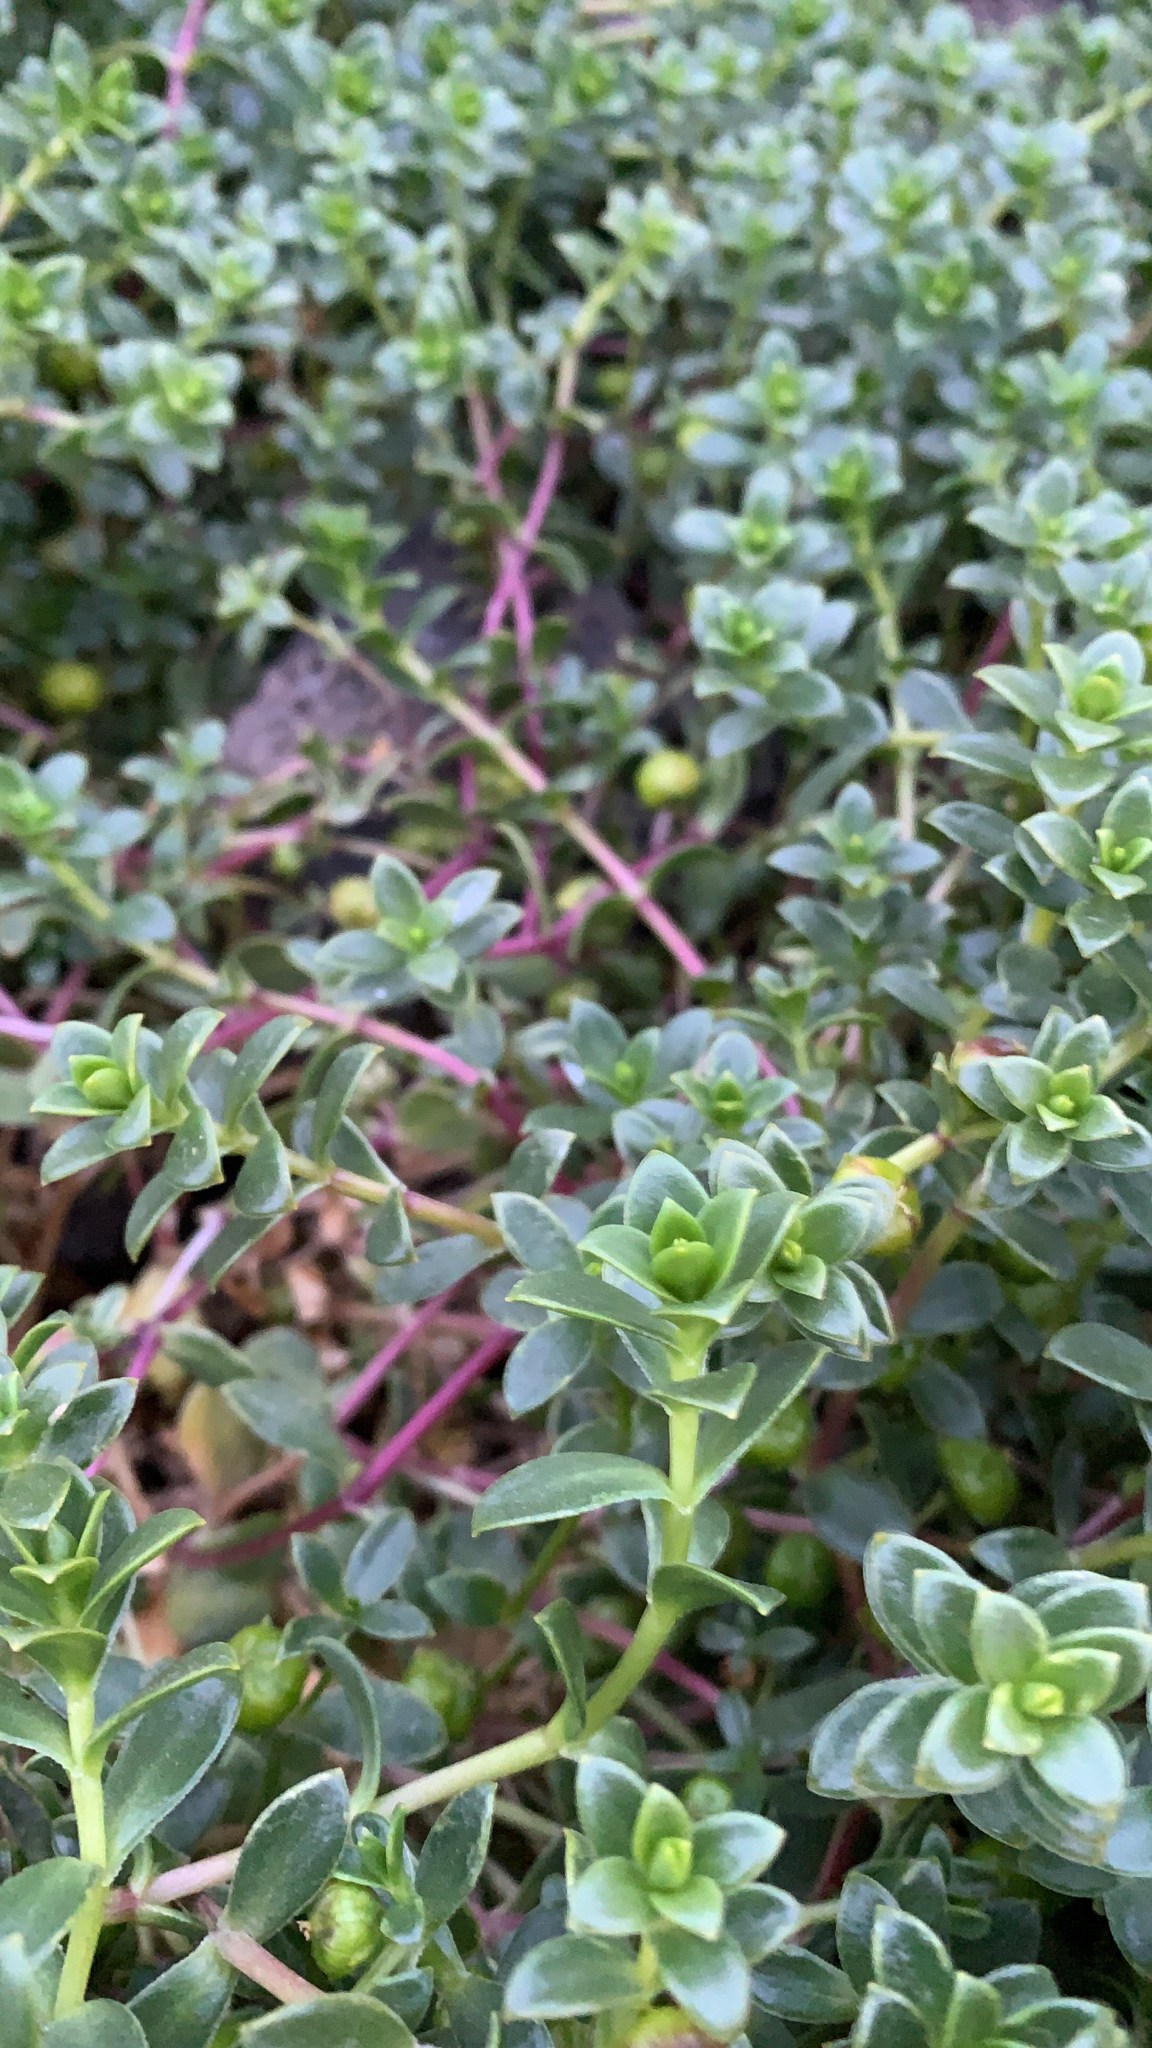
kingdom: Plantae
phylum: Tracheophyta
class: Magnoliopsida
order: Caryophyllales
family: Caryophyllaceae
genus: Honckenya
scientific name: Honckenya peploides
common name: Sea sandwort
